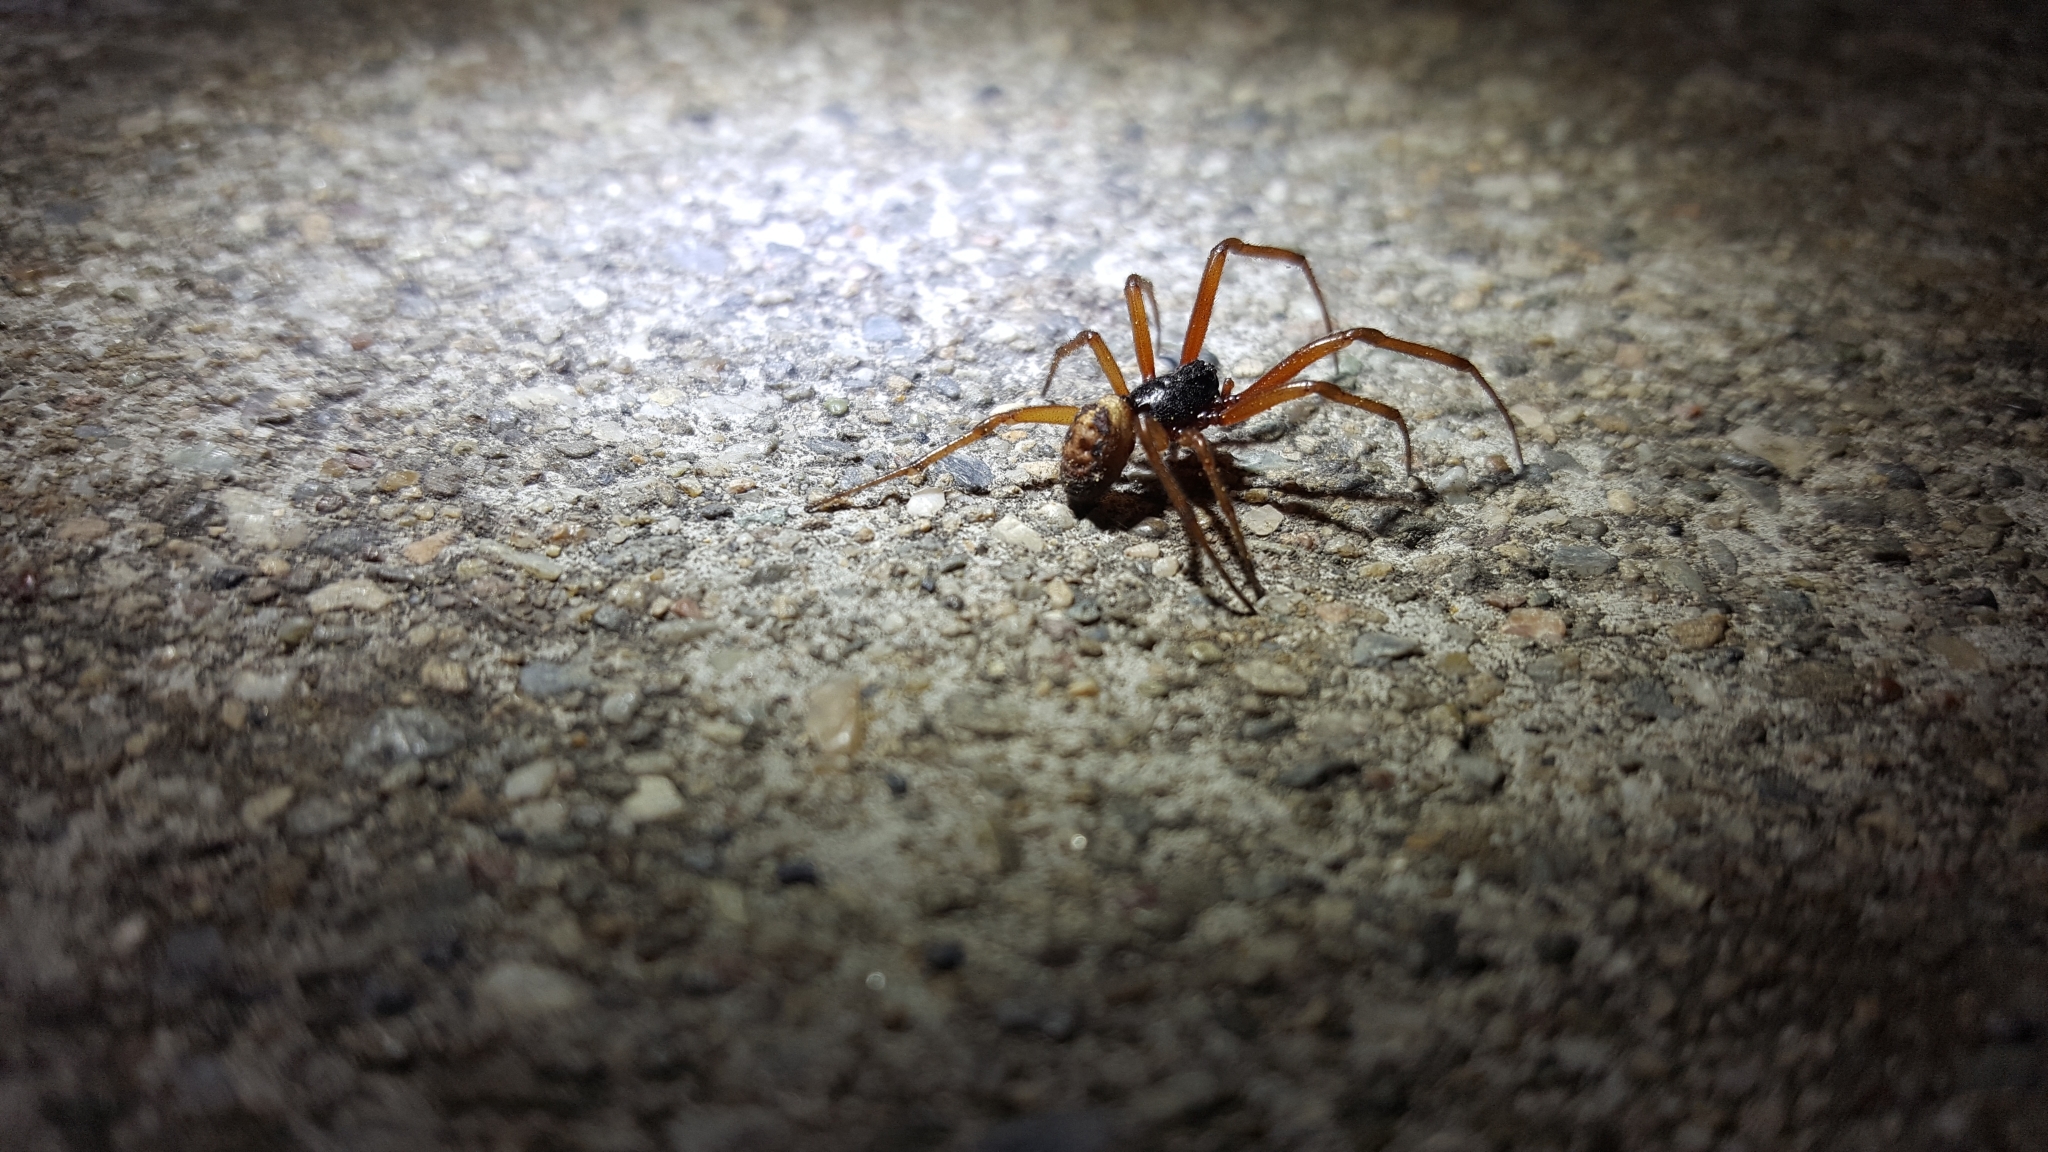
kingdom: Animalia
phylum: Arthropoda
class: Arachnida
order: Araneae
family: Theridiidae
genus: Steatoda
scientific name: Steatoda nobilis
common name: Cobweb weaver
